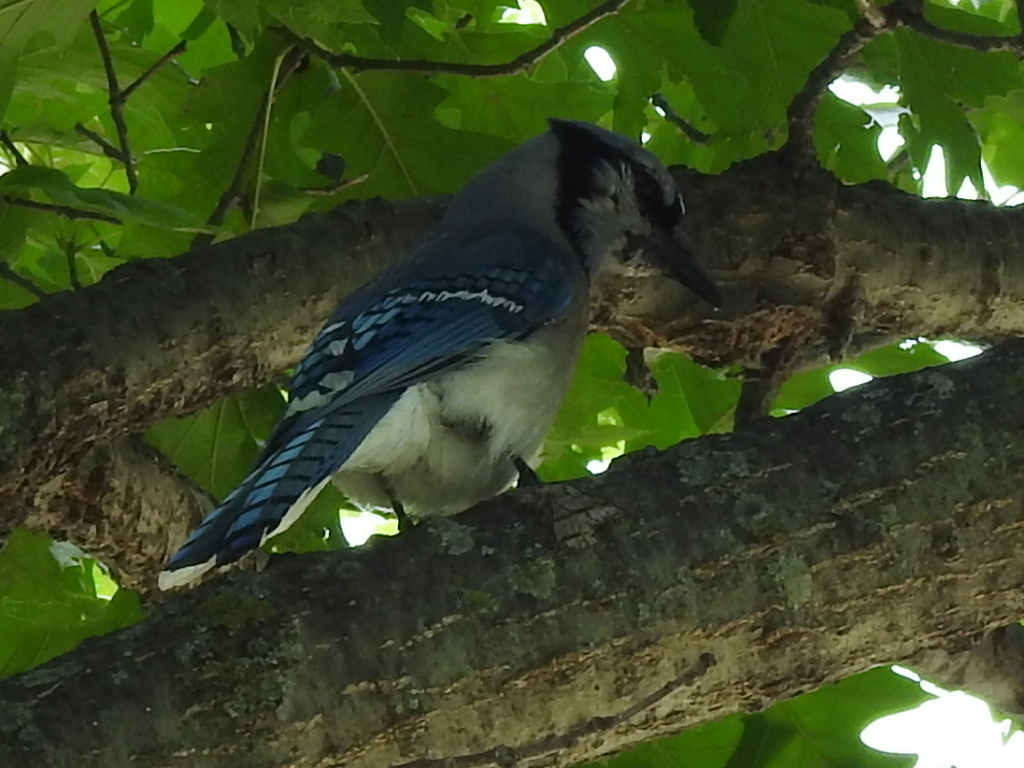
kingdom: Animalia
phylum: Chordata
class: Aves
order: Passeriformes
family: Corvidae
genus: Cyanocitta
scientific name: Cyanocitta cristata
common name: Blue jay
